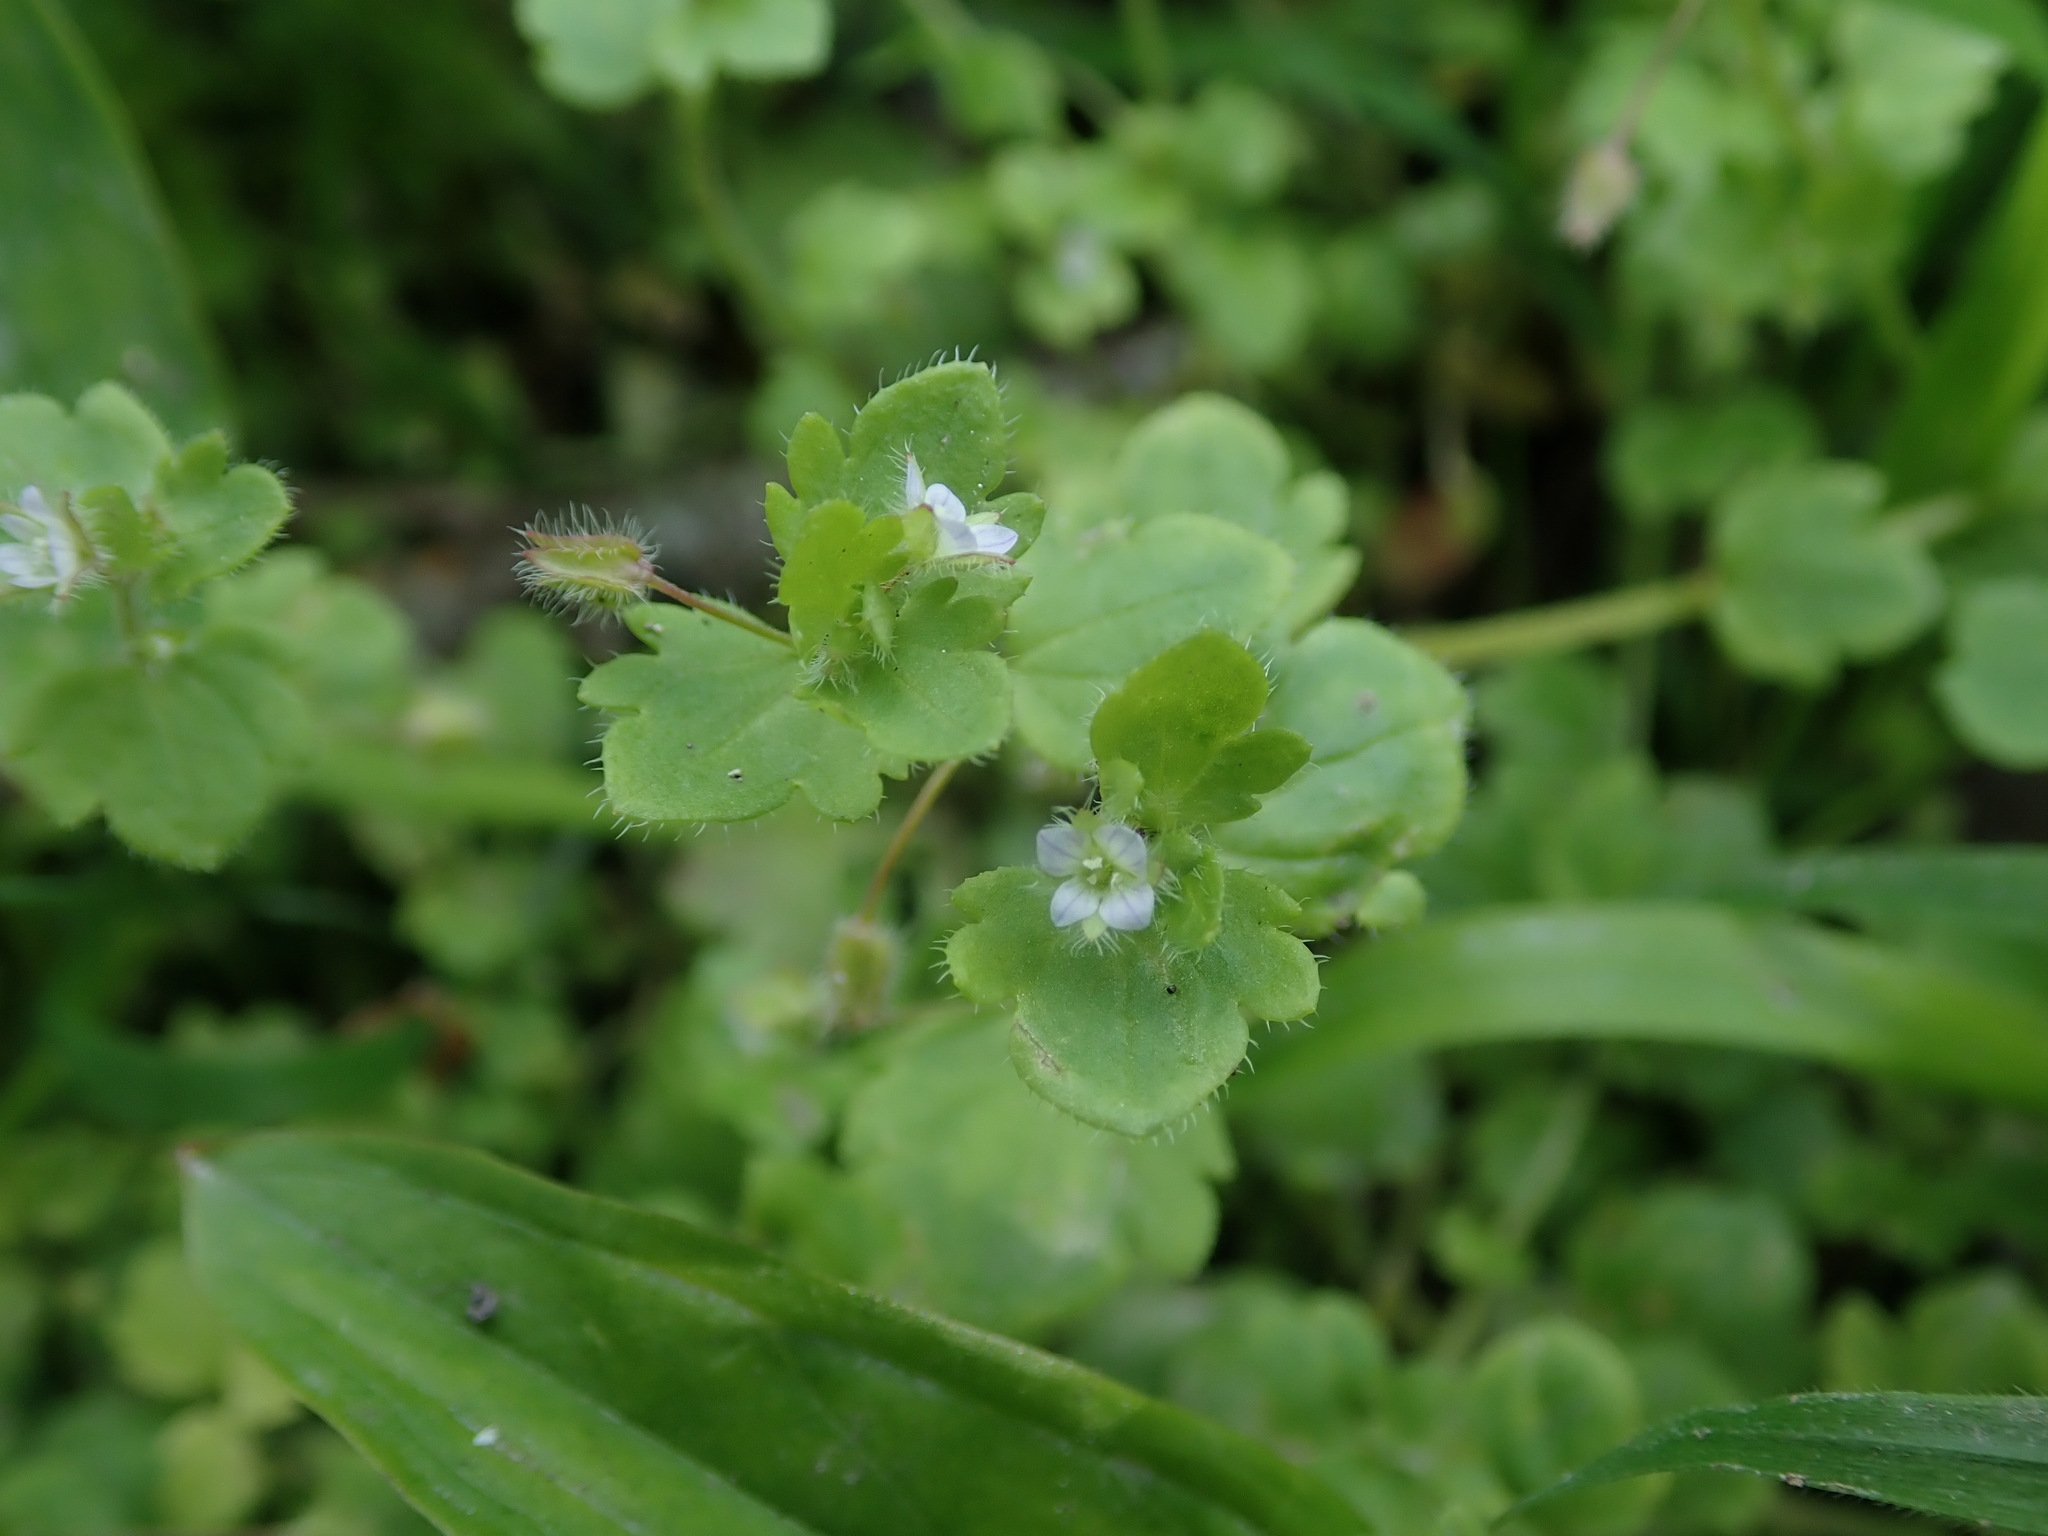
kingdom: Plantae
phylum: Tracheophyta
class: Magnoliopsida
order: Lamiales
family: Plantaginaceae
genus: Veronica
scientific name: Veronica sublobata
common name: False ivy-leaved speedwell
